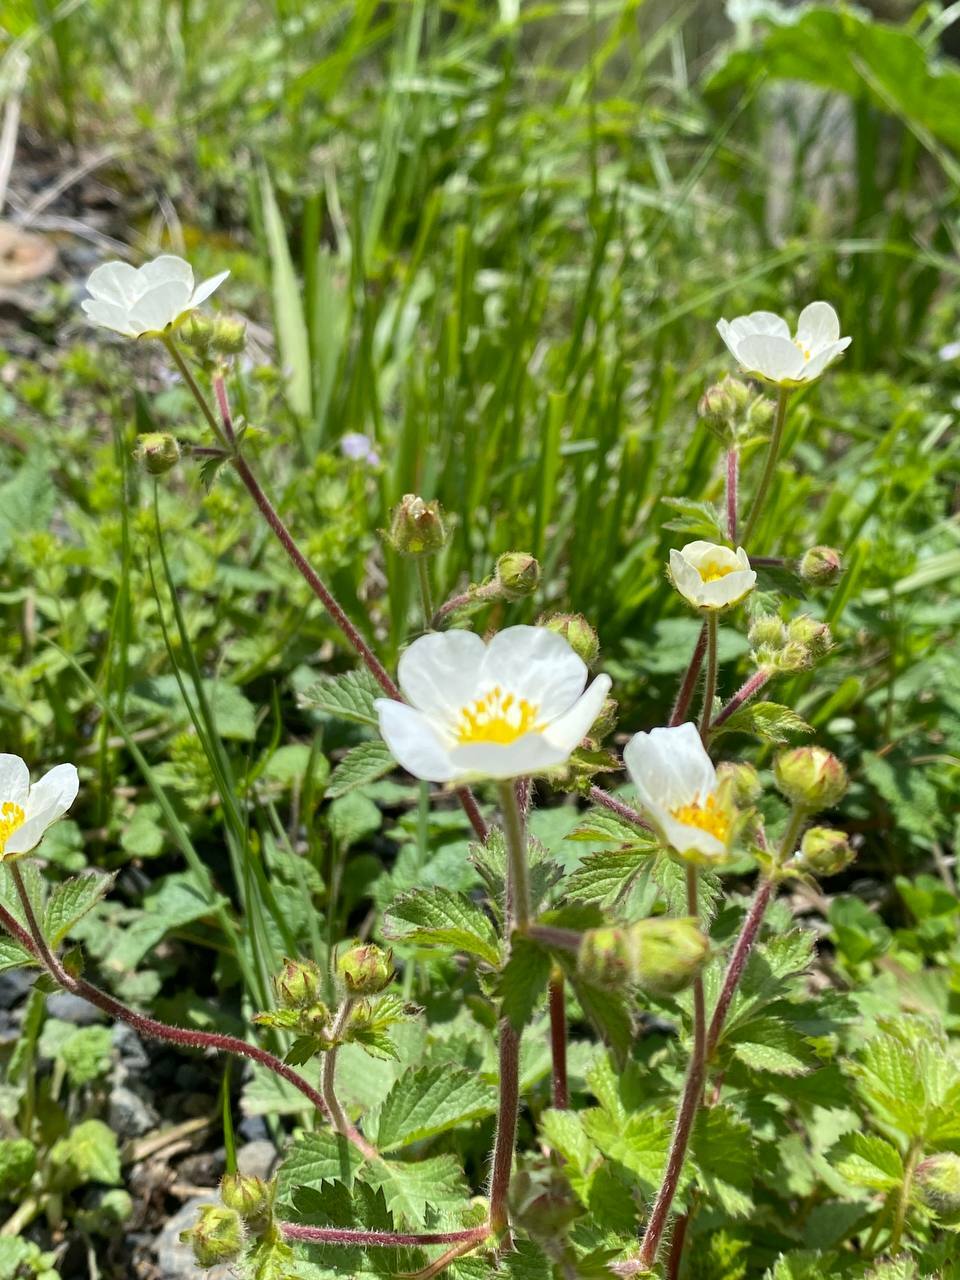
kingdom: Plantae
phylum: Tracheophyta
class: Magnoliopsida
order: Rosales
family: Rosaceae
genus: Drymocallis
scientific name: Drymocallis rupestris
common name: Rock cinquefoil
